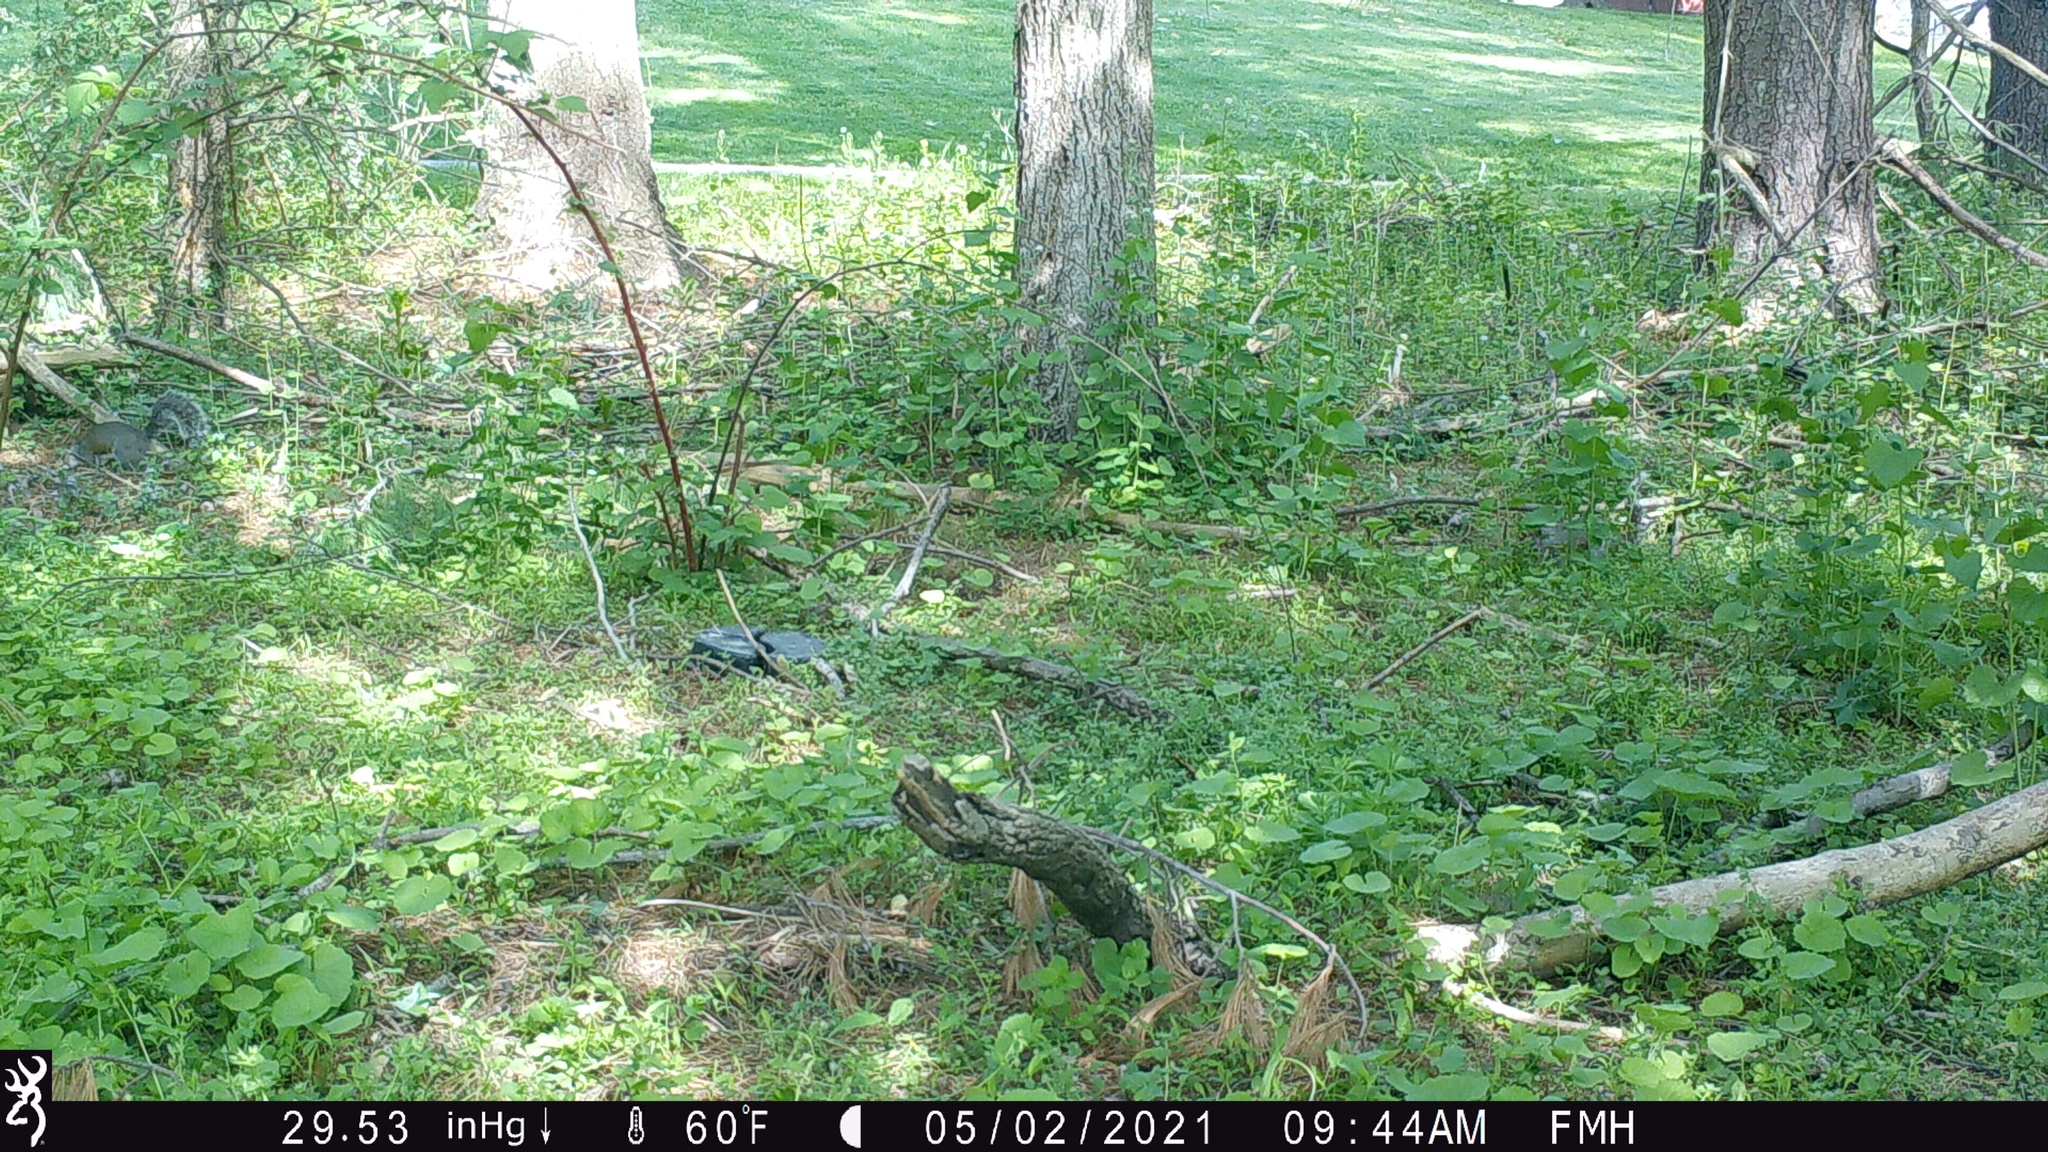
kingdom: Animalia
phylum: Chordata
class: Mammalia
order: Rodentia
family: Sciuridae
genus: Sciurus
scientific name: Sciurus carolinensis
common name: Eastern gray squirrel
